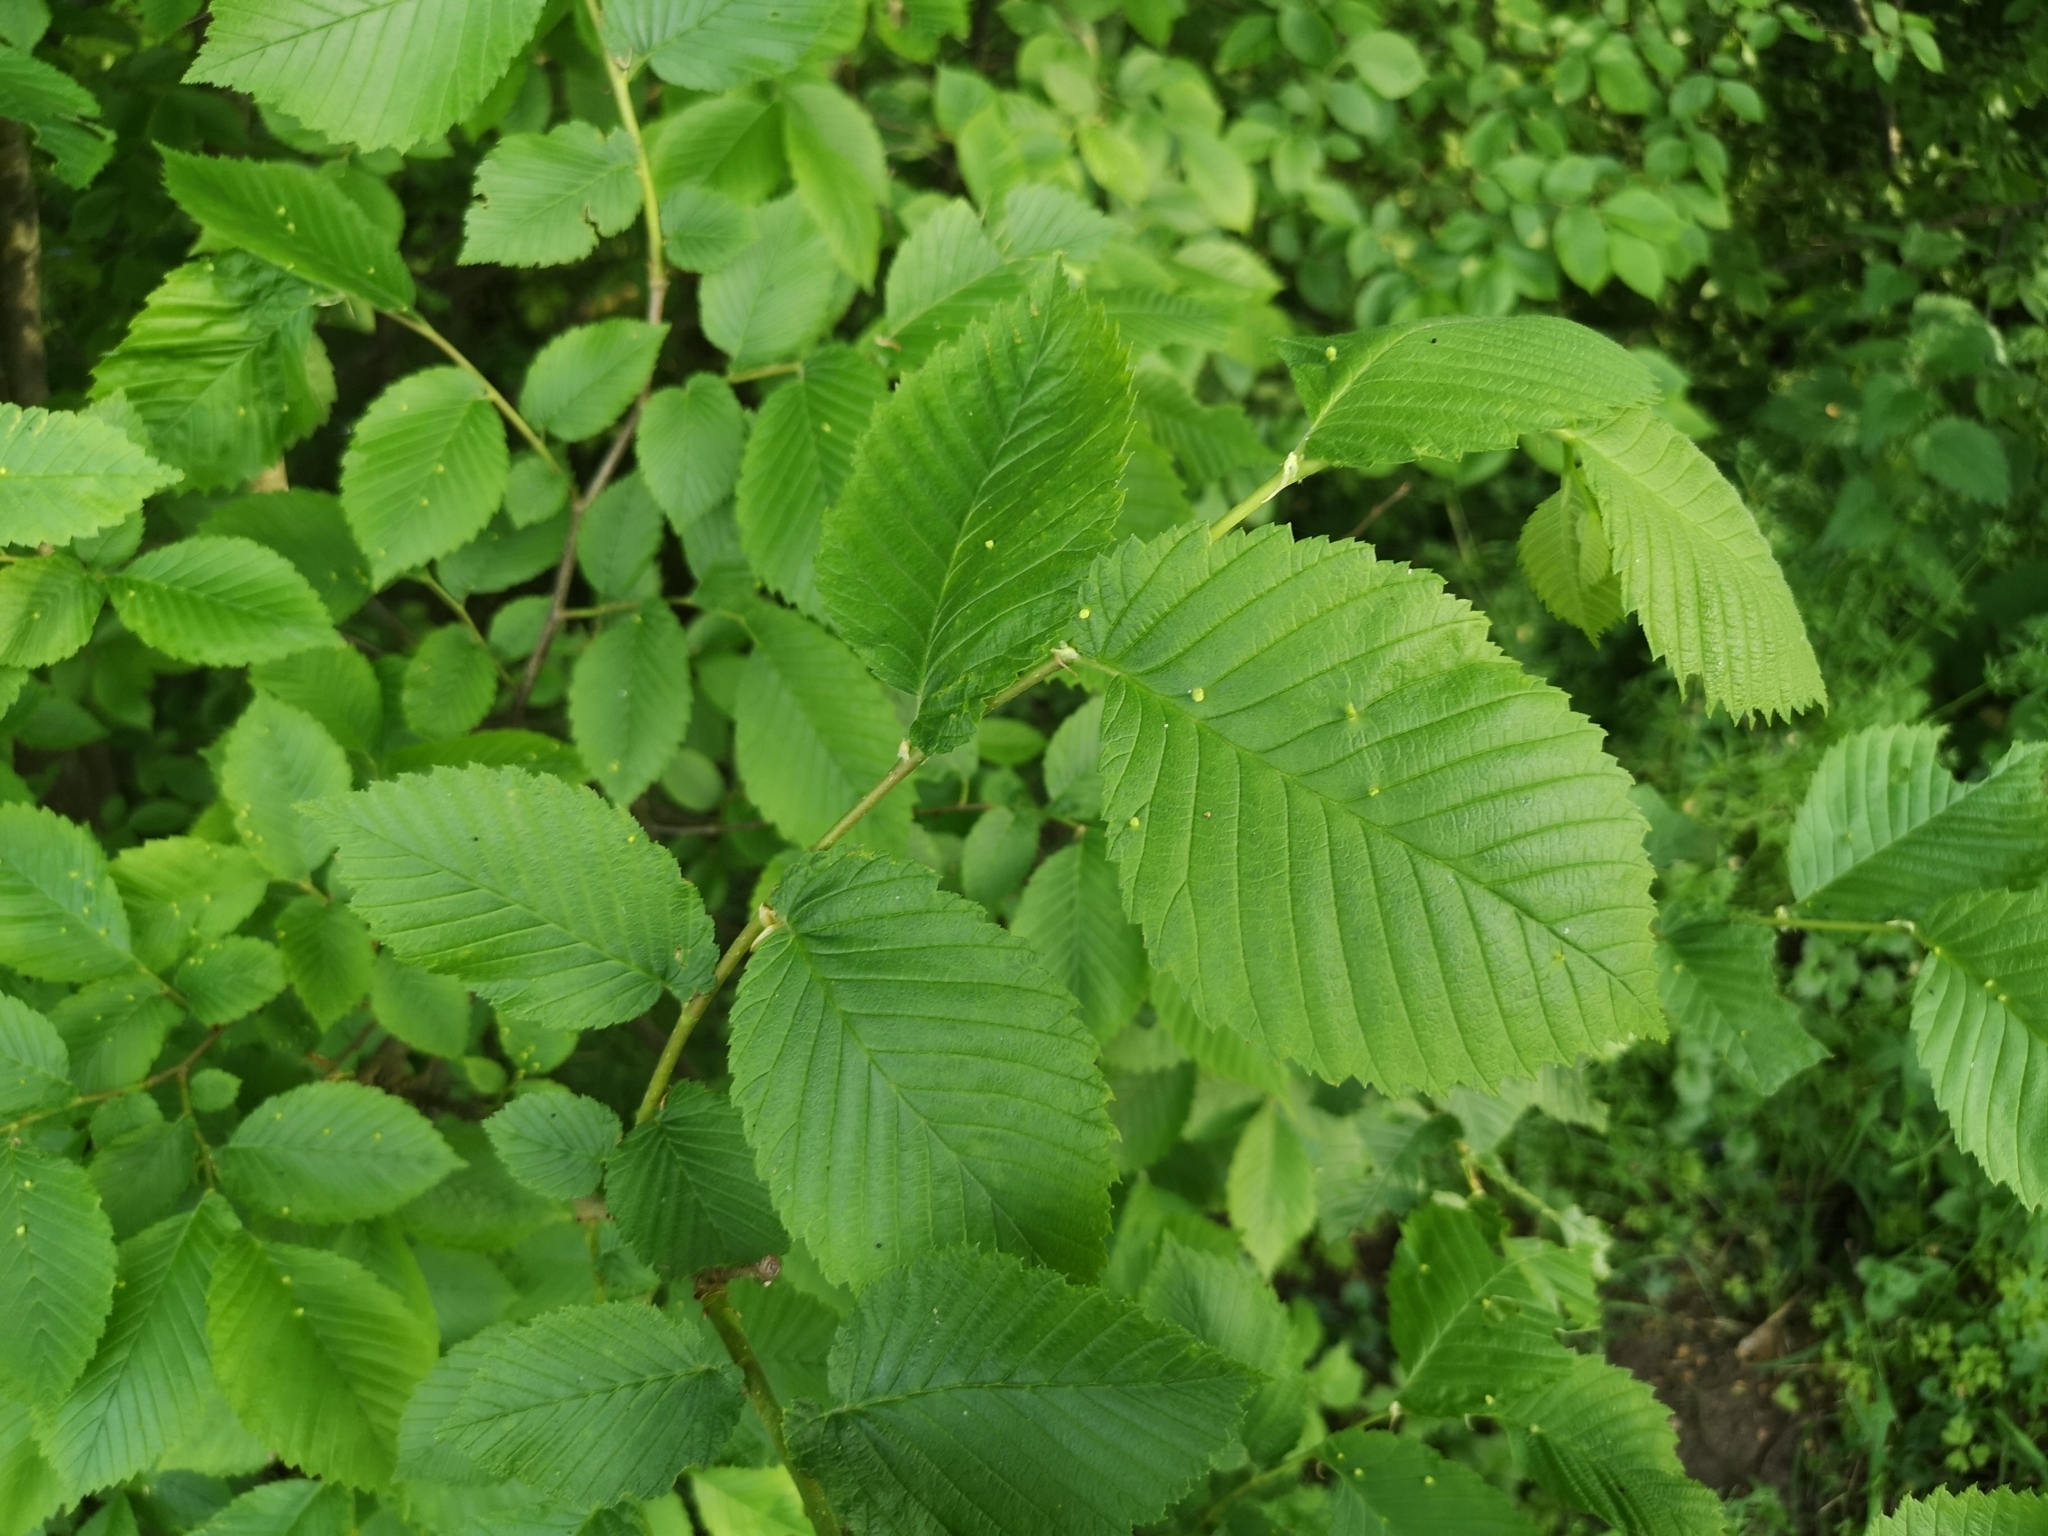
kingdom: Plantae
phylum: Tracheophyta
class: Magnoliopsida
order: Rosales
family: Ulmaceae
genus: Ulmus
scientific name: Ulmus laevis
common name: European white-elm
